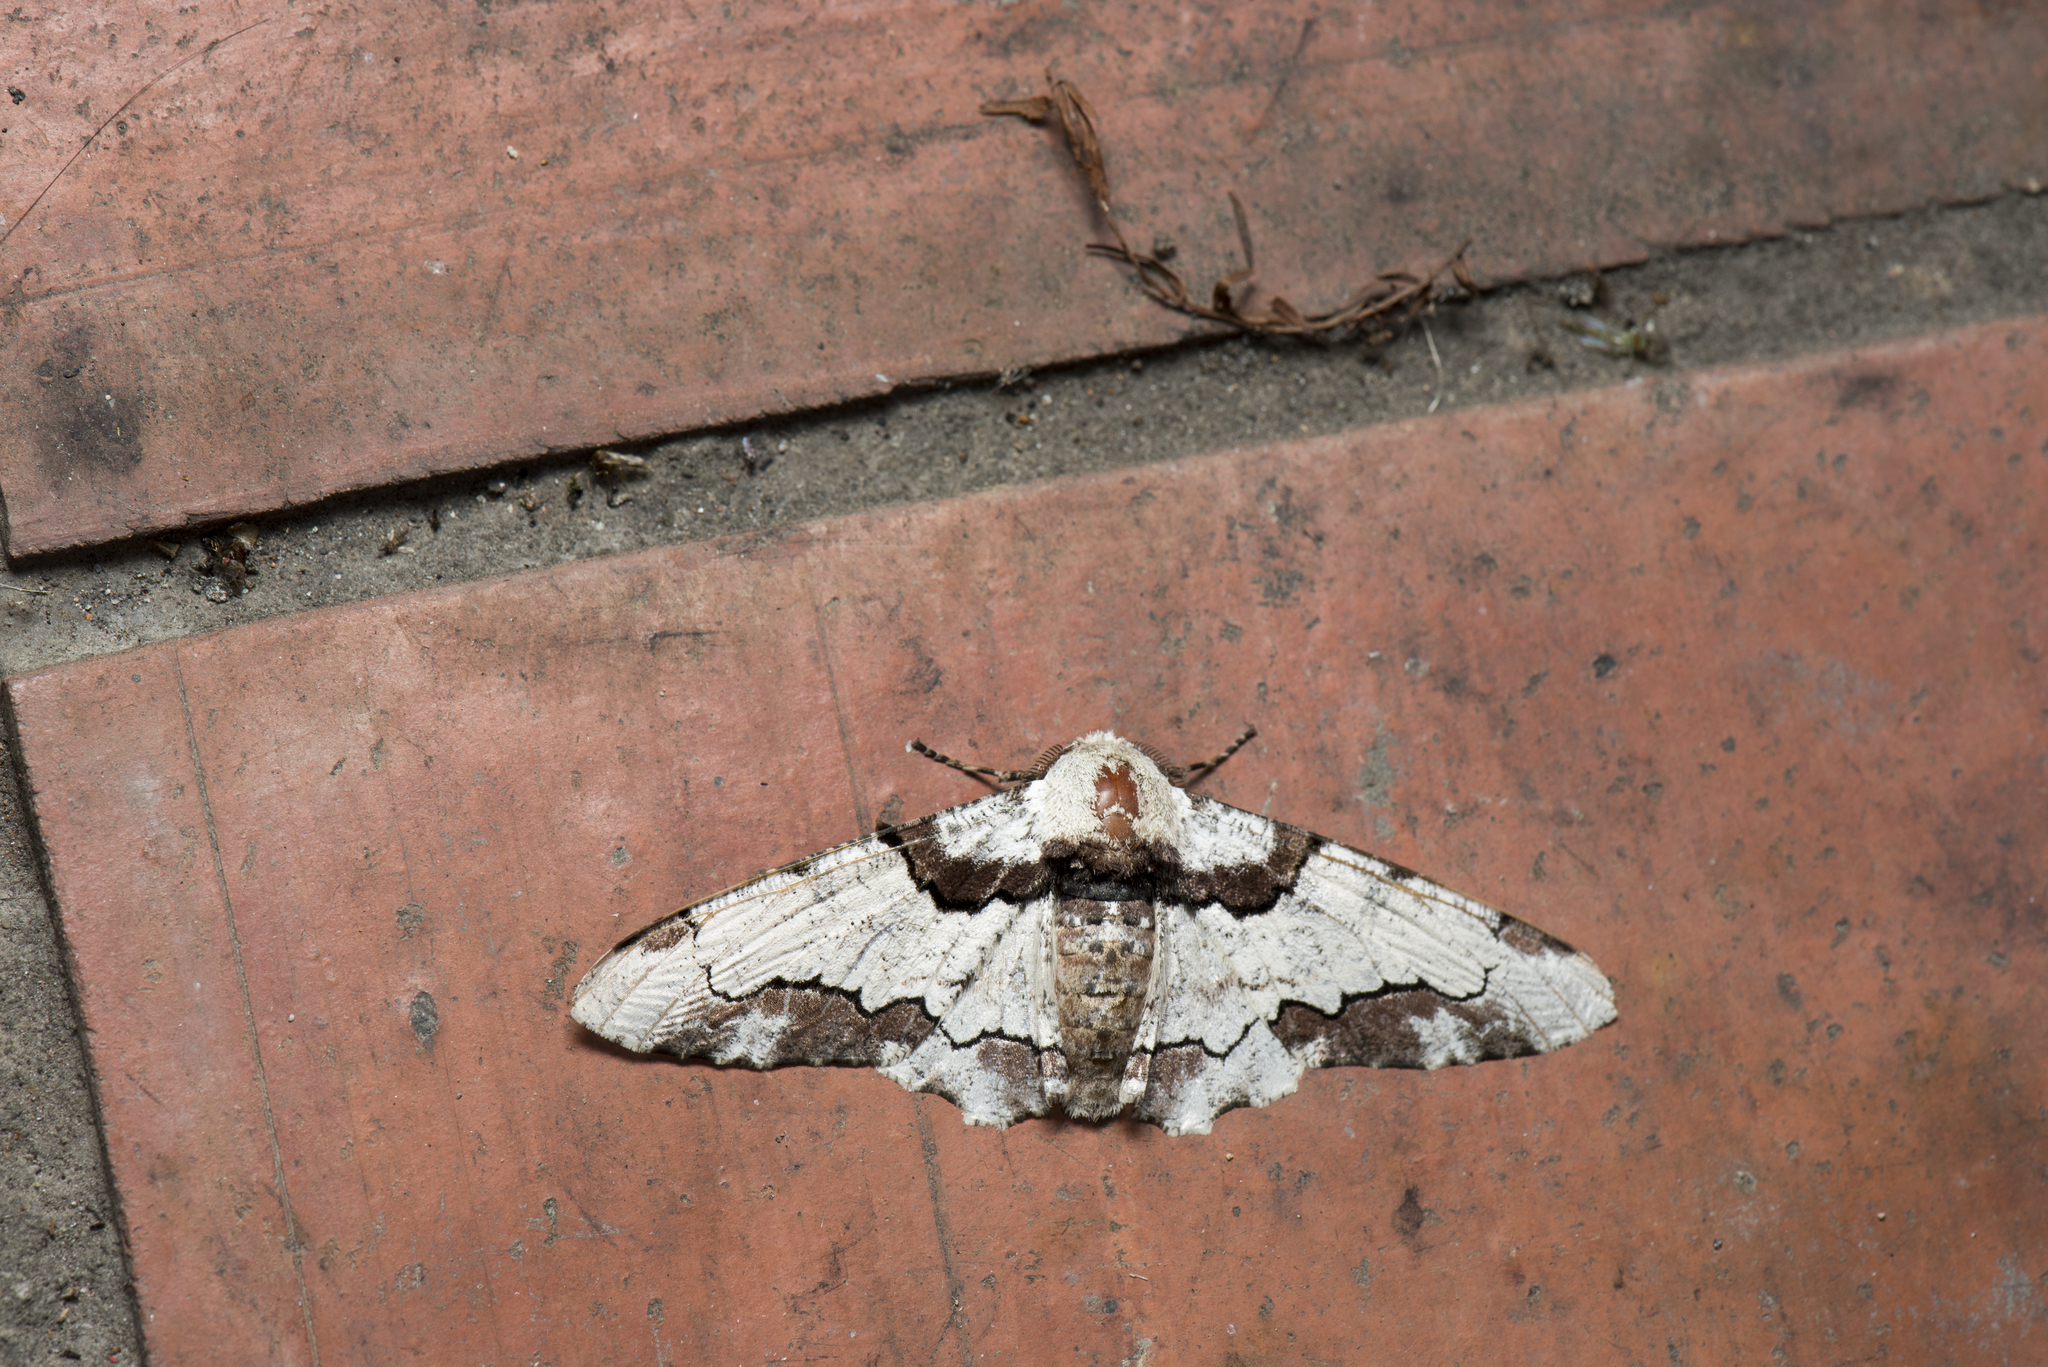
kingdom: Animalia
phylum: Arthropoda
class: Insecta
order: Lepidoptera
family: Geometridae
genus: Biston
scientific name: Biston regalis
